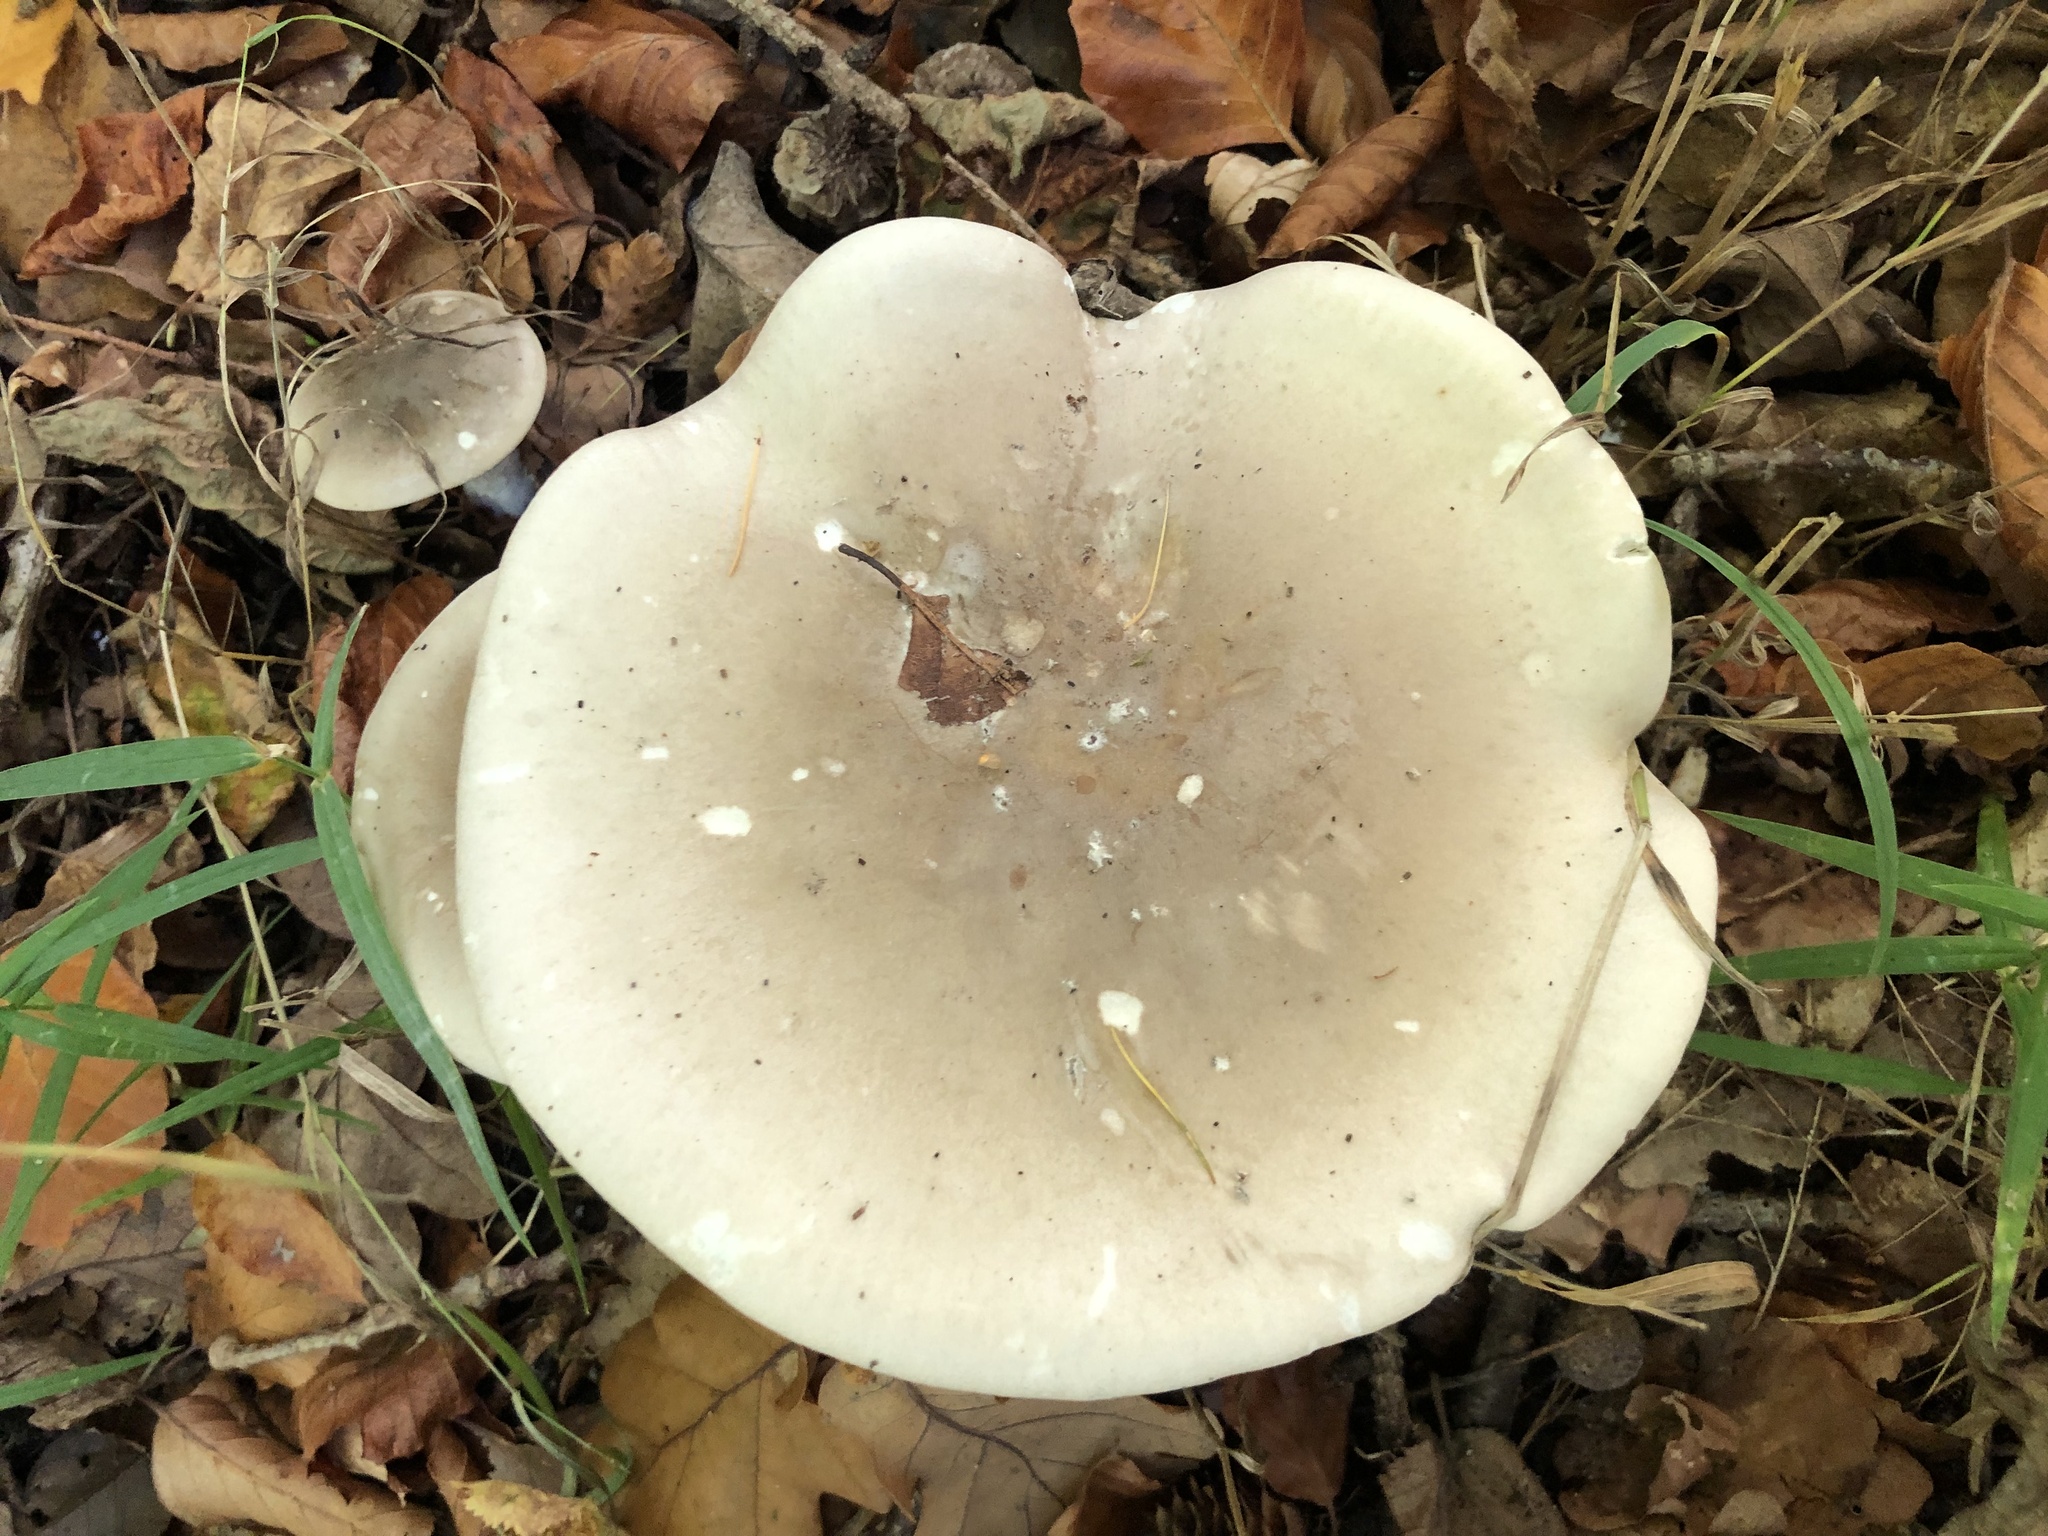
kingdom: Fungi
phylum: Basidiomycota
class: Agaricomycetes
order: Agaricales
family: Tricholomataceae
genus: Clitocybe
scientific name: Clitocybe nebularis
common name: Clouded agaric
